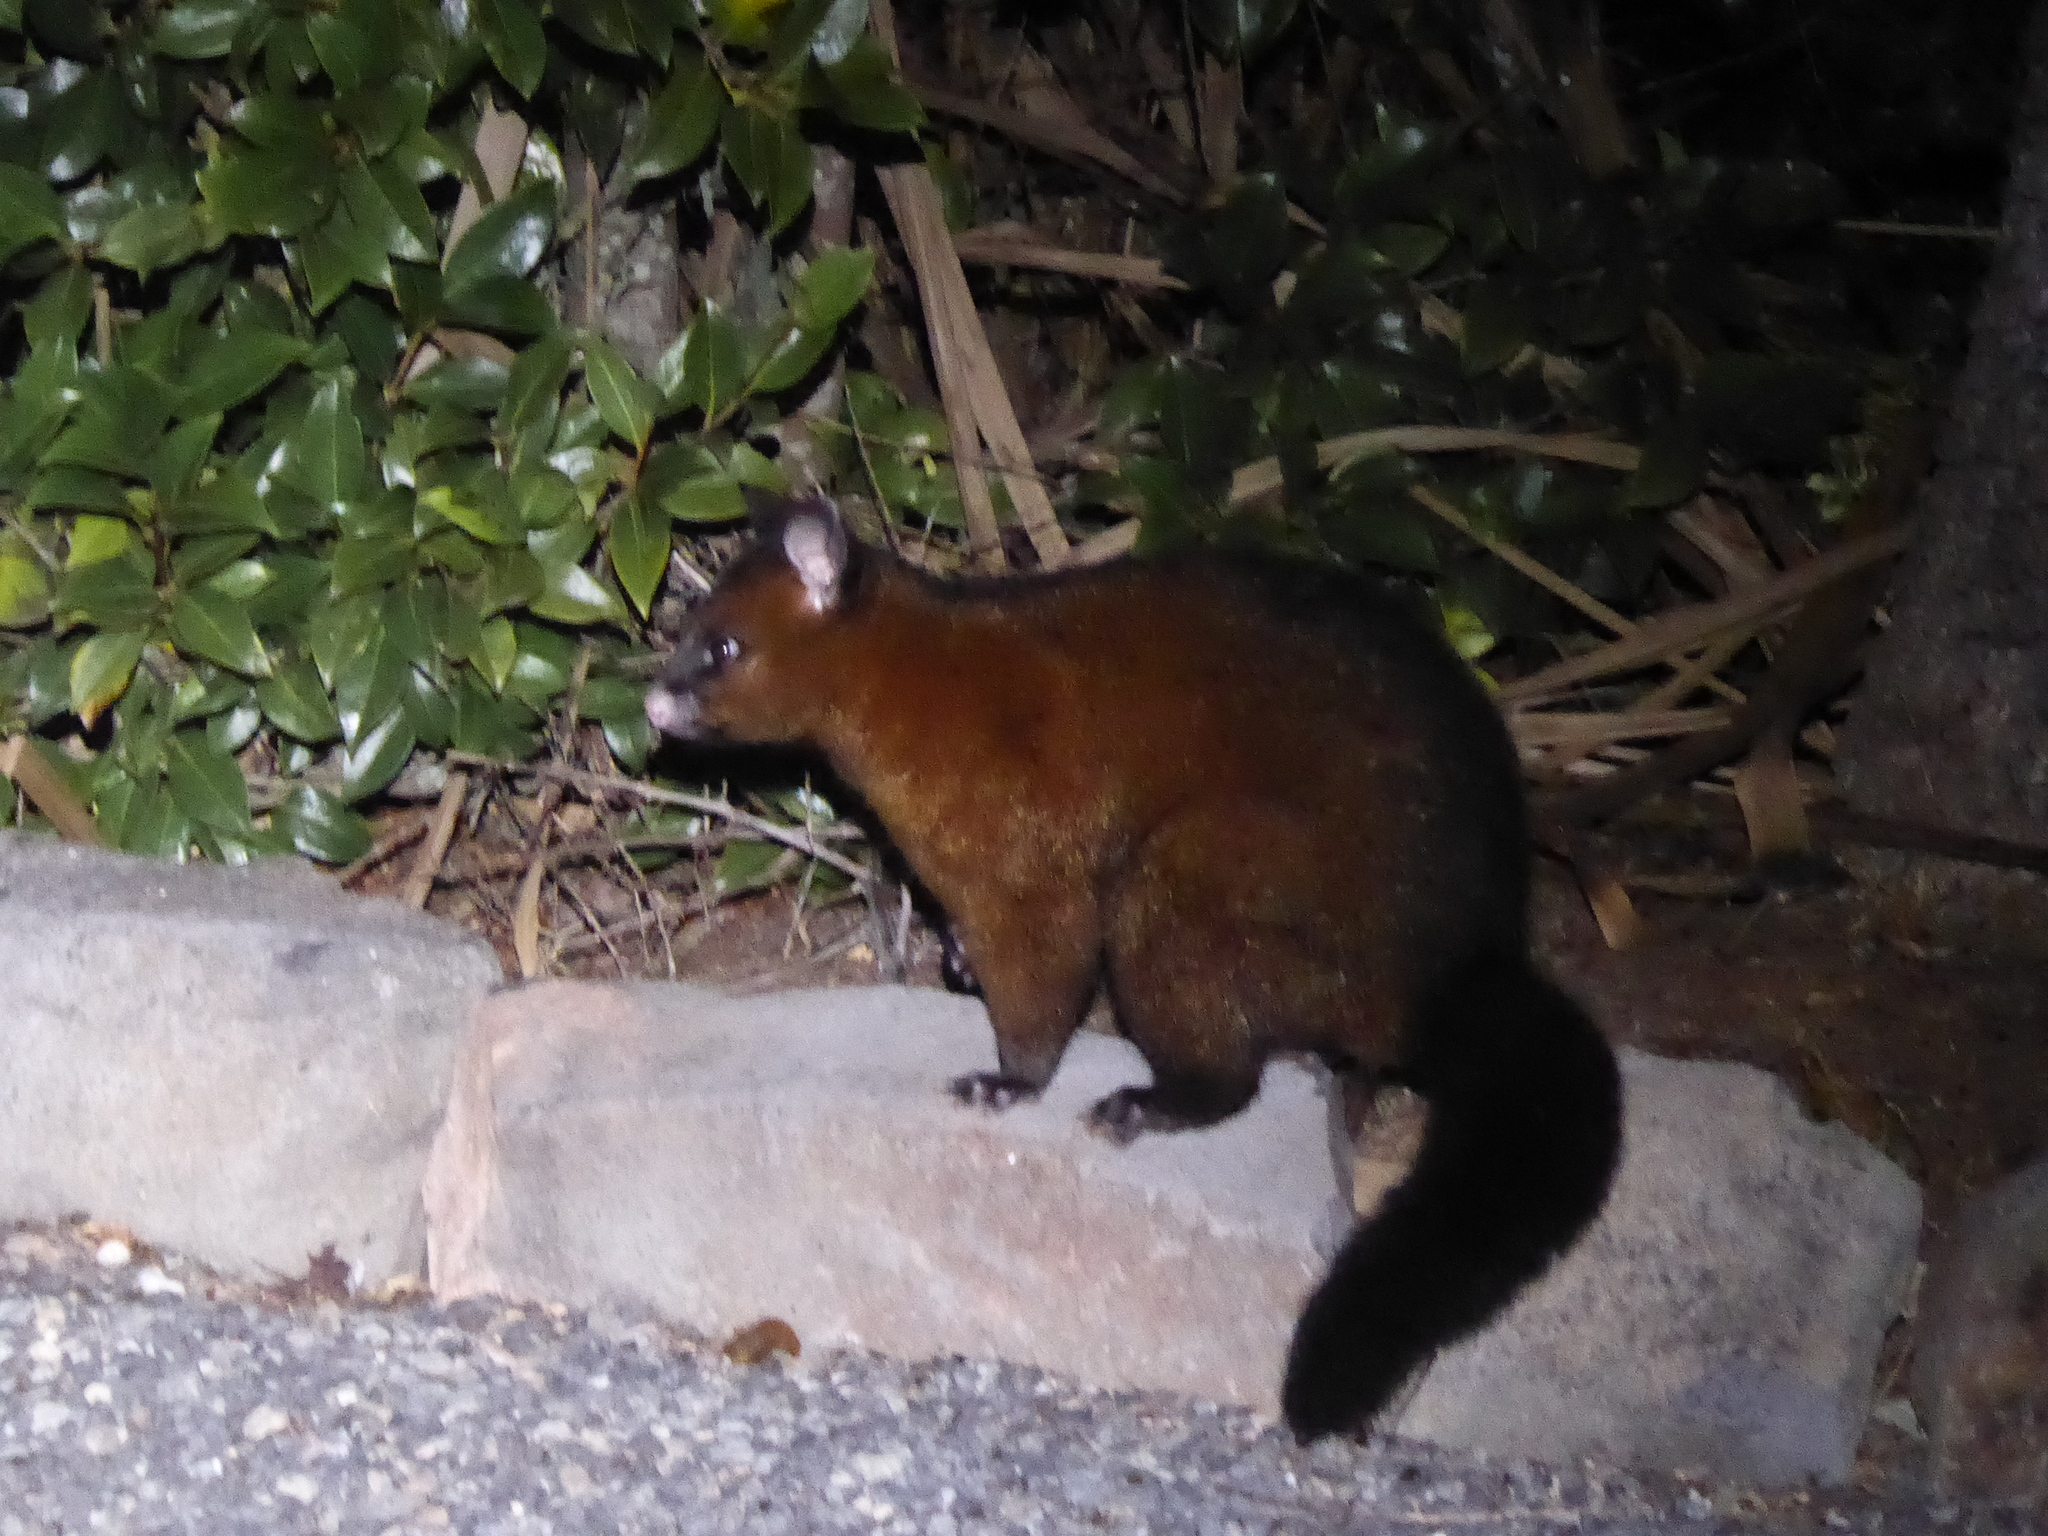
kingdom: Animalia
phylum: Chordata
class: Mammalia
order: Diprotodontia
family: Phalangeridae
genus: Trichosurus
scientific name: Trichosurus vulpecula
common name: Common brushtail
